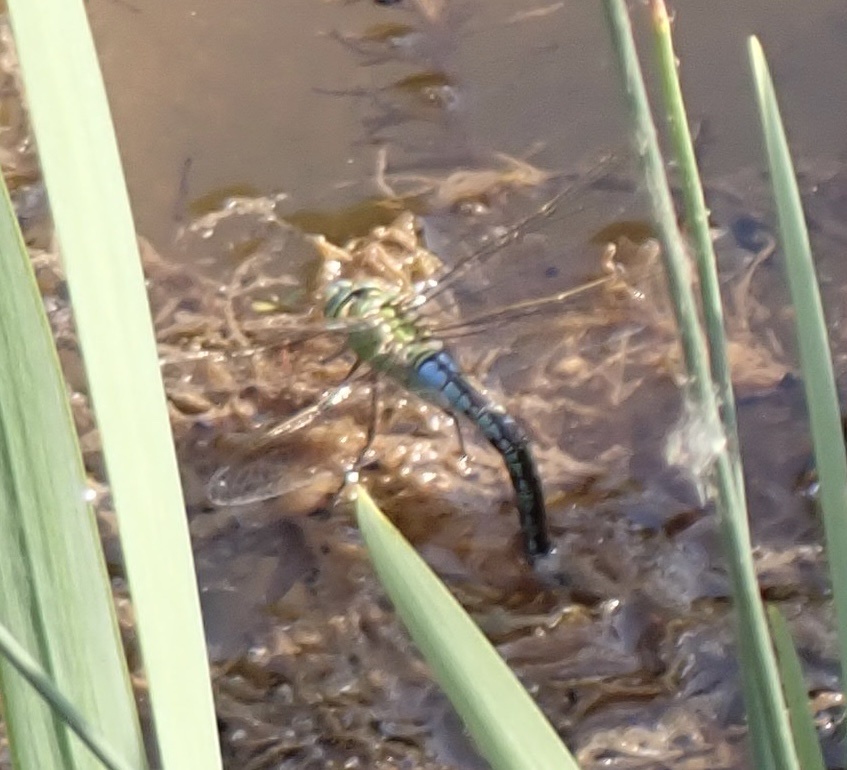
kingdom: Animalia
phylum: Arthropoda
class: Insecta
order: Odonata
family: Aeshnidae
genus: Anax
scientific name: Anax imperator
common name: Emperor dragonfly
